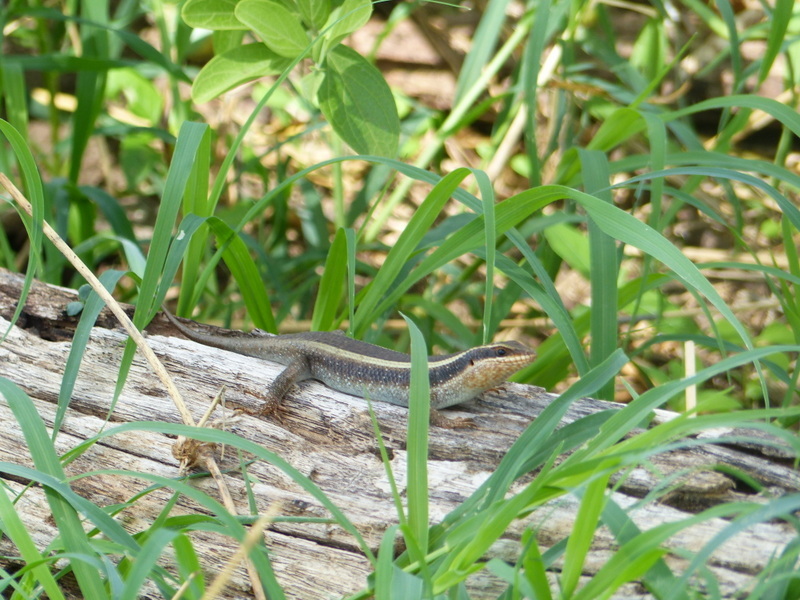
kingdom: Animalia
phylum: Chordata
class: Squamata
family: Scincidae
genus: Trachylepis
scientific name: Trachylepis striata
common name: African striped mabuya
